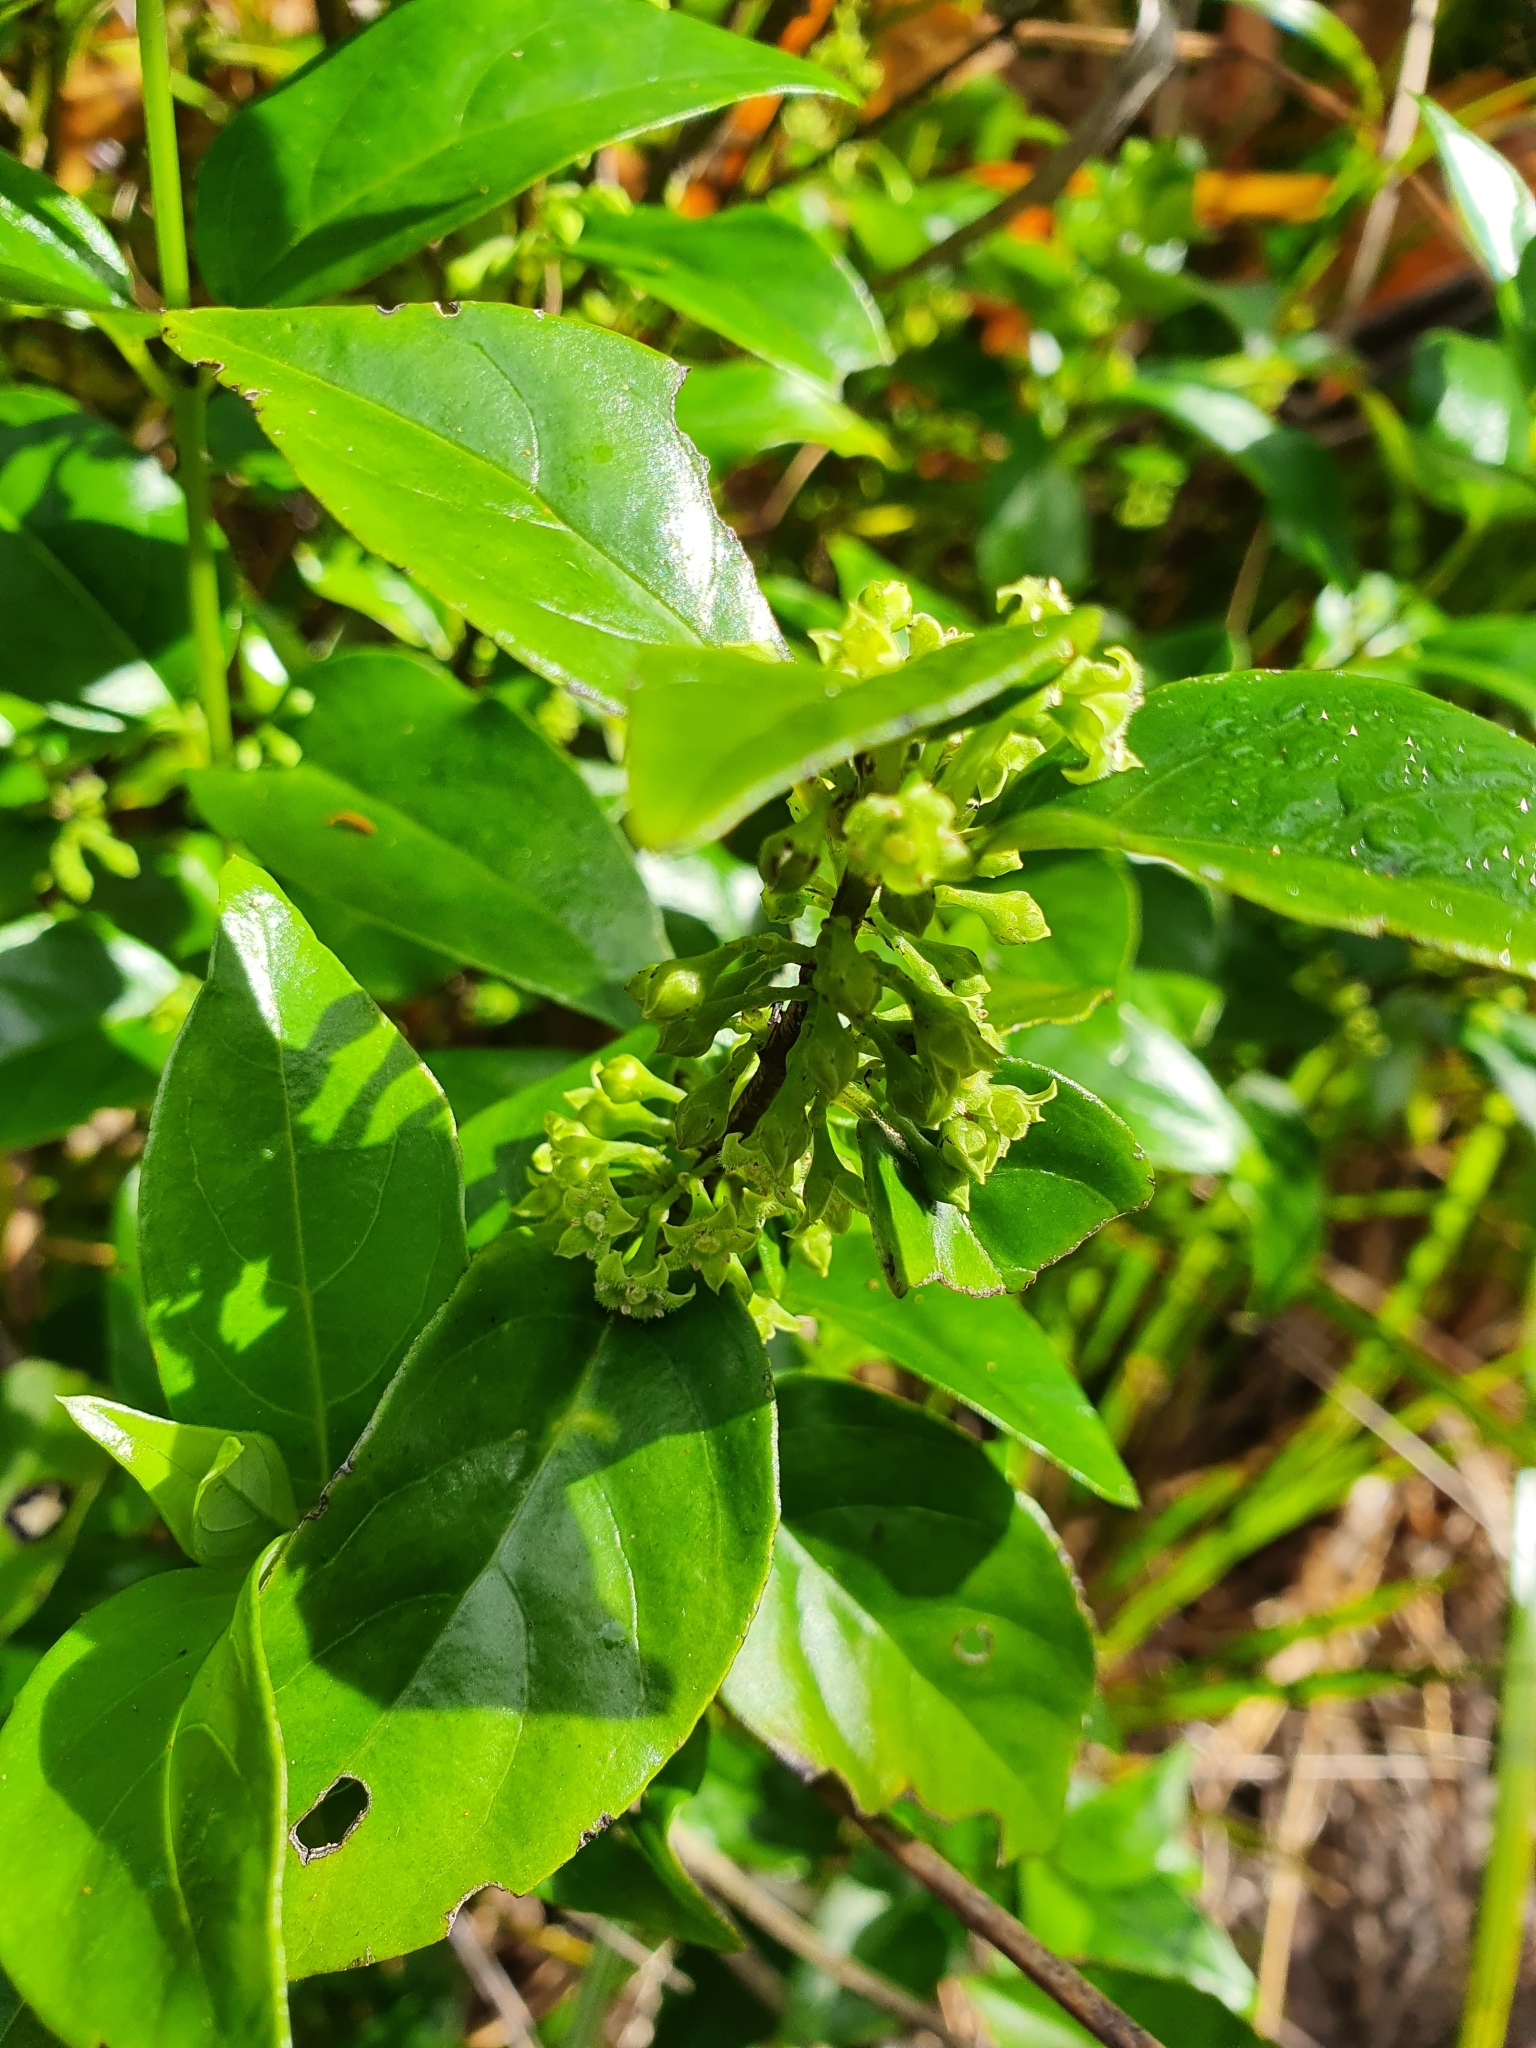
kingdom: Plantae
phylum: Tracheophyta
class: Magnoliopsida
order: Gentianales
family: Loganiaceae
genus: Geniostoma
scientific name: Geniostoma ligustrifolium
